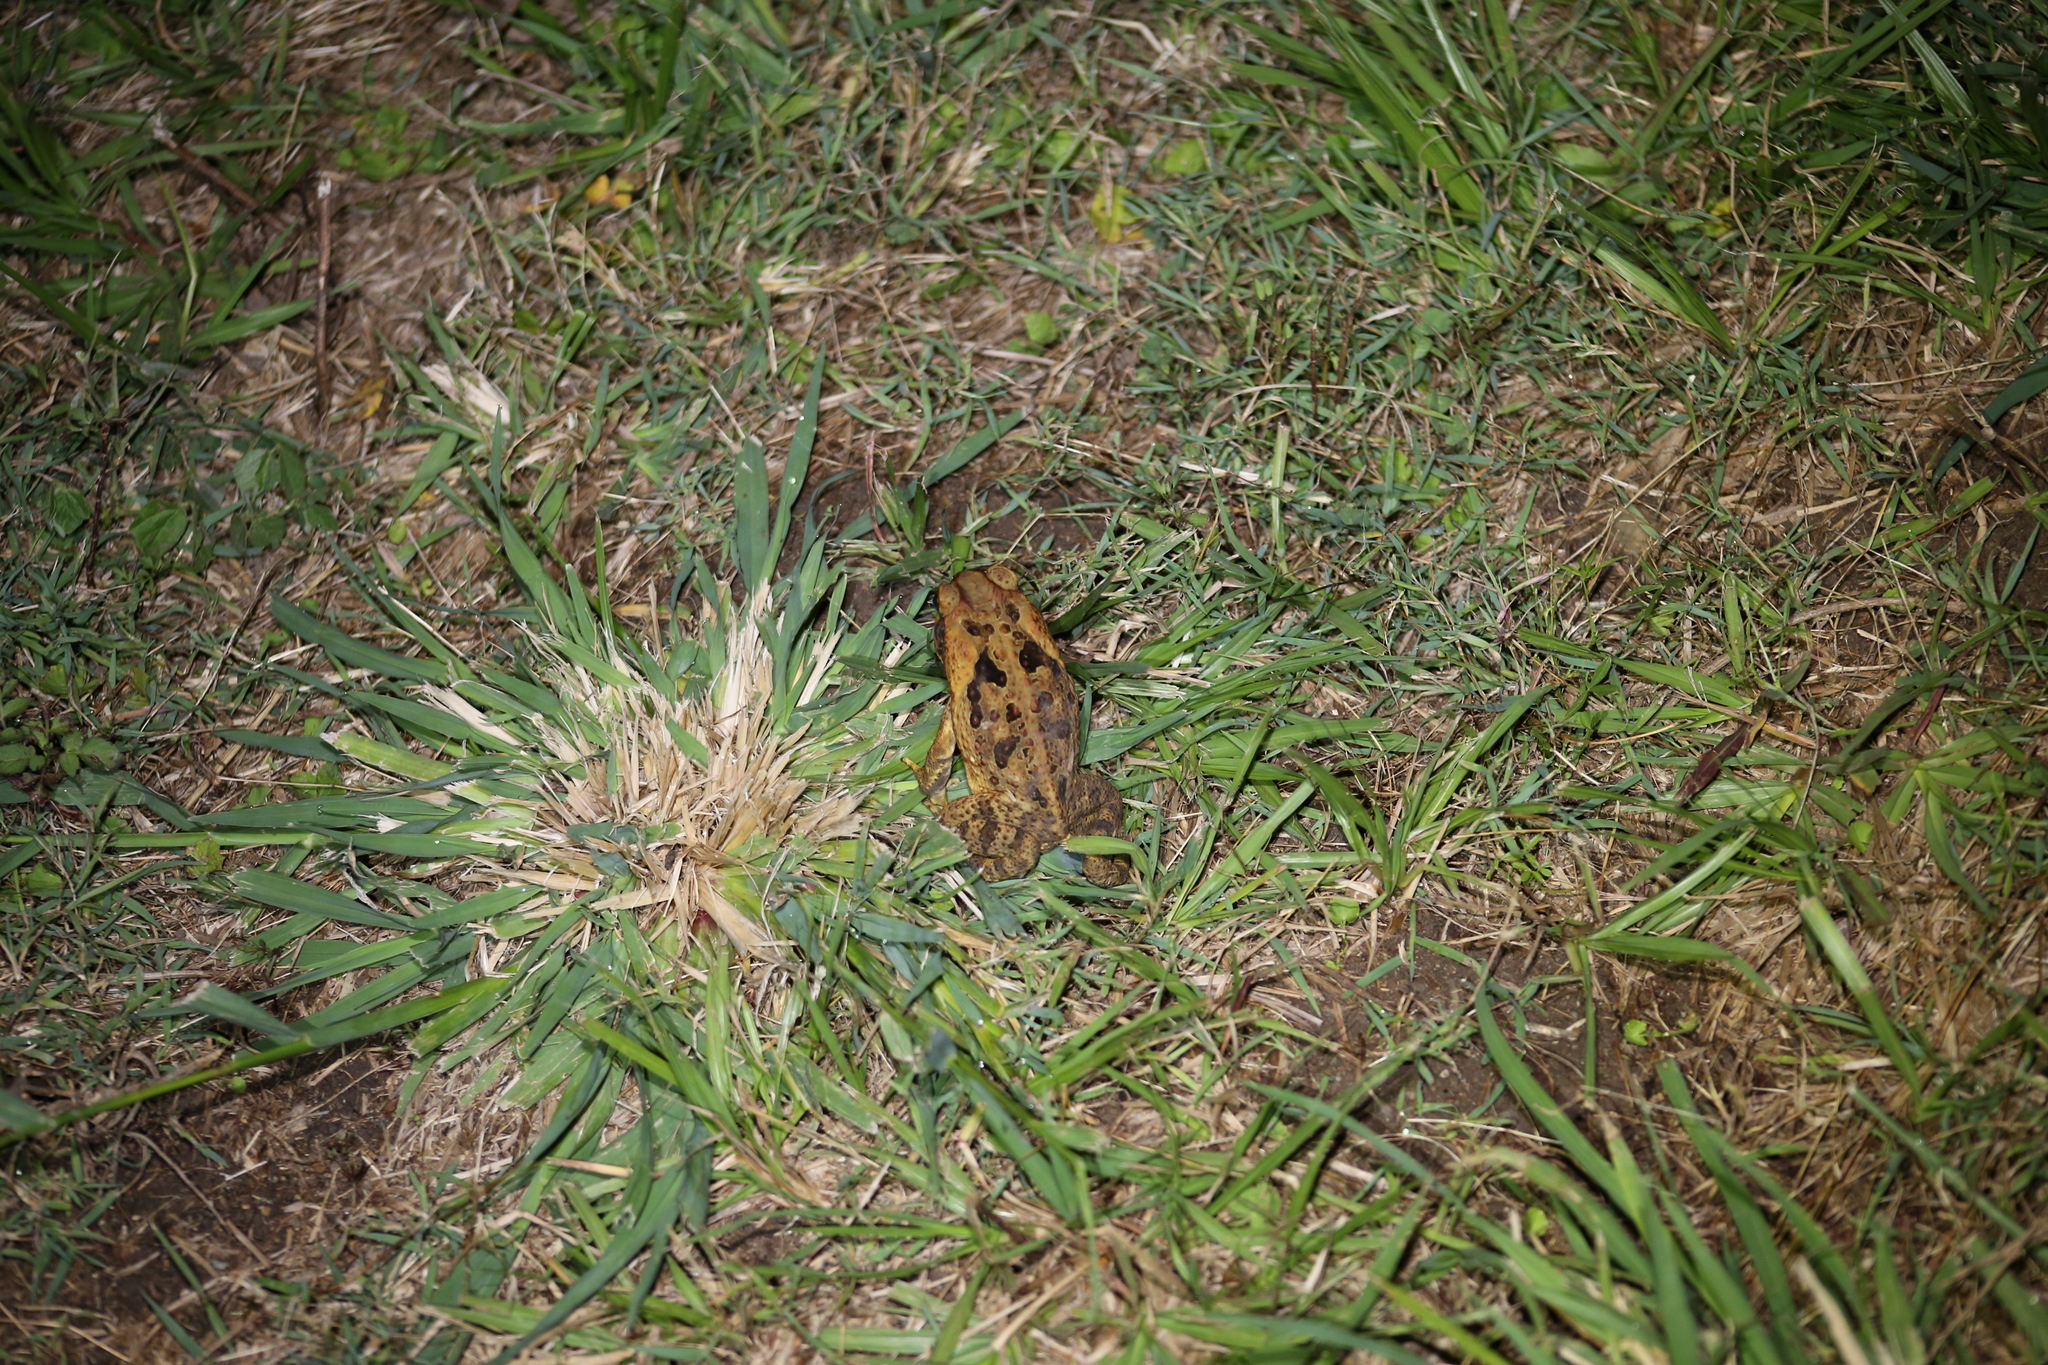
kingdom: Animalia
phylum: Chordata
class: Amphibia
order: Anura
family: Bufonidae
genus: Rhinella
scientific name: Rhinella marina
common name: Cane toad
